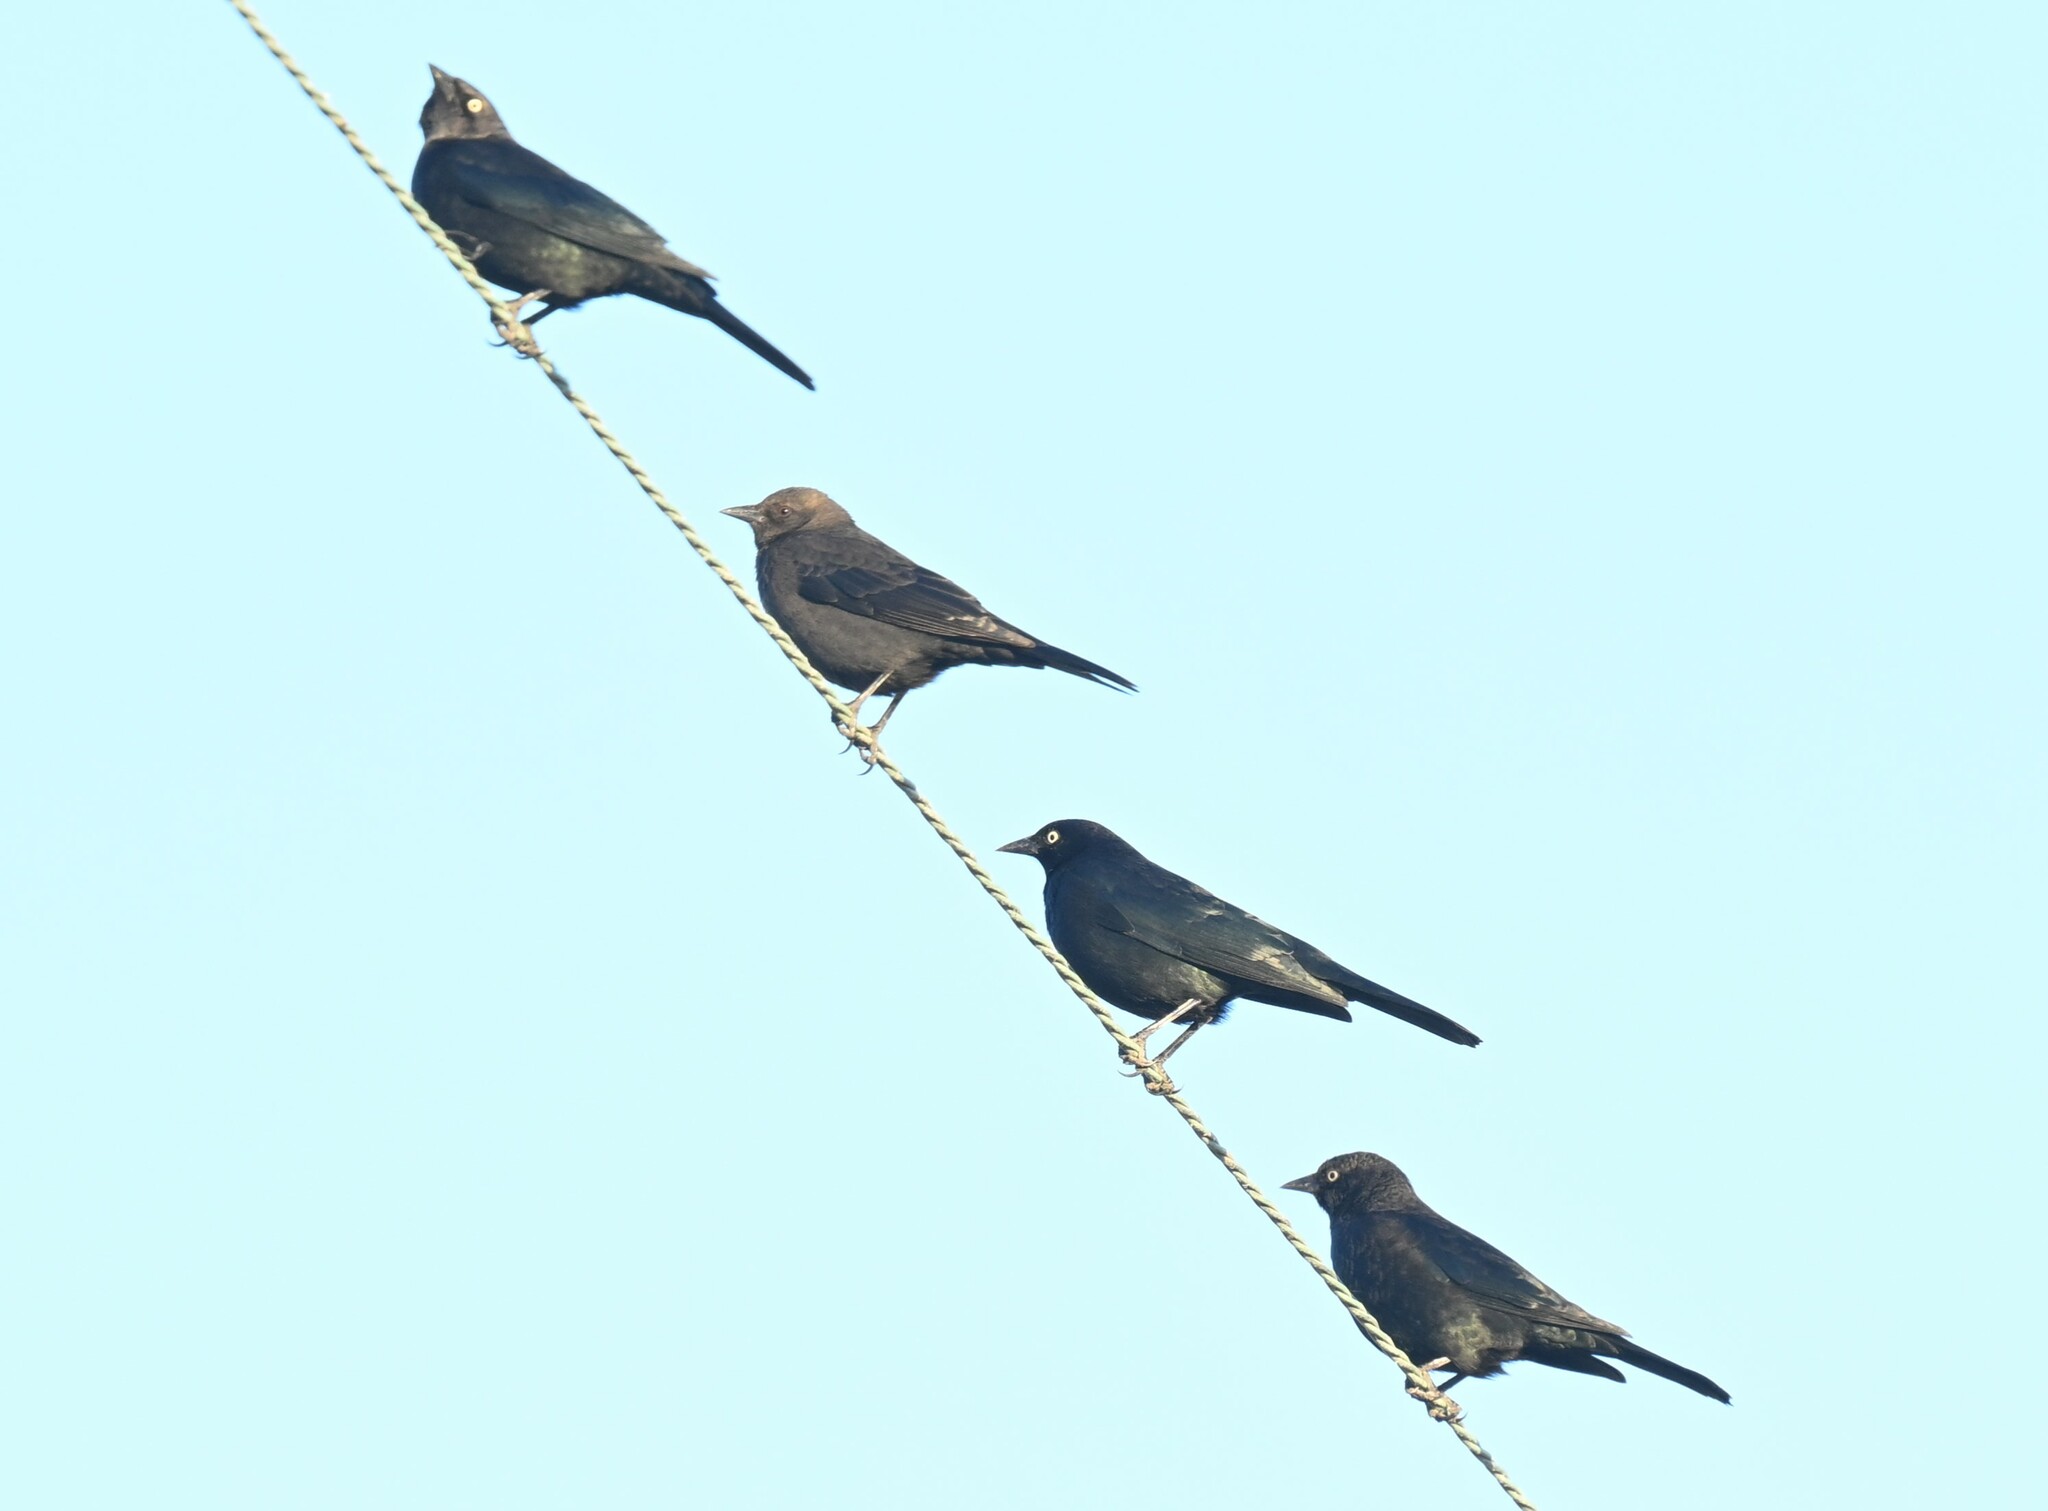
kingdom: Animalia
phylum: Chordata
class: Aves
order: Passeriformes
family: Icteridae
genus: Euphagus
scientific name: Euphagus cyanocephalus
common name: Brewer's blackbird
